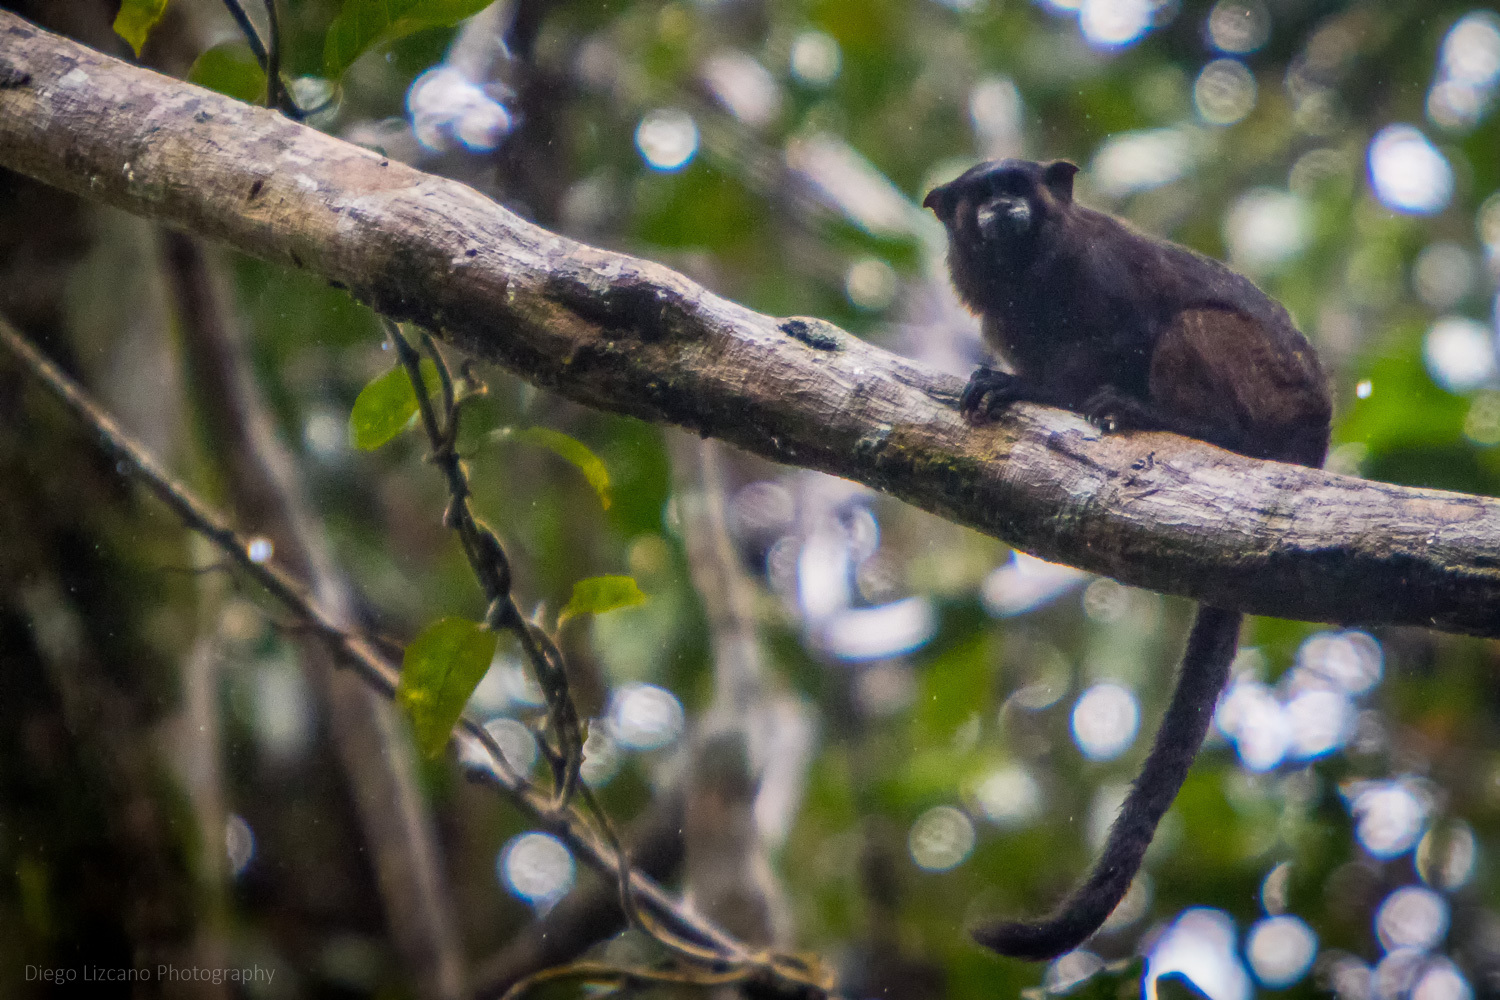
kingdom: Animalia
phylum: Chordata
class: Mammalia
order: Primates
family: Callitrichidae
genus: Leontocebus
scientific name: Leontocebus nigricollis
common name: Black-mantled tamarin
